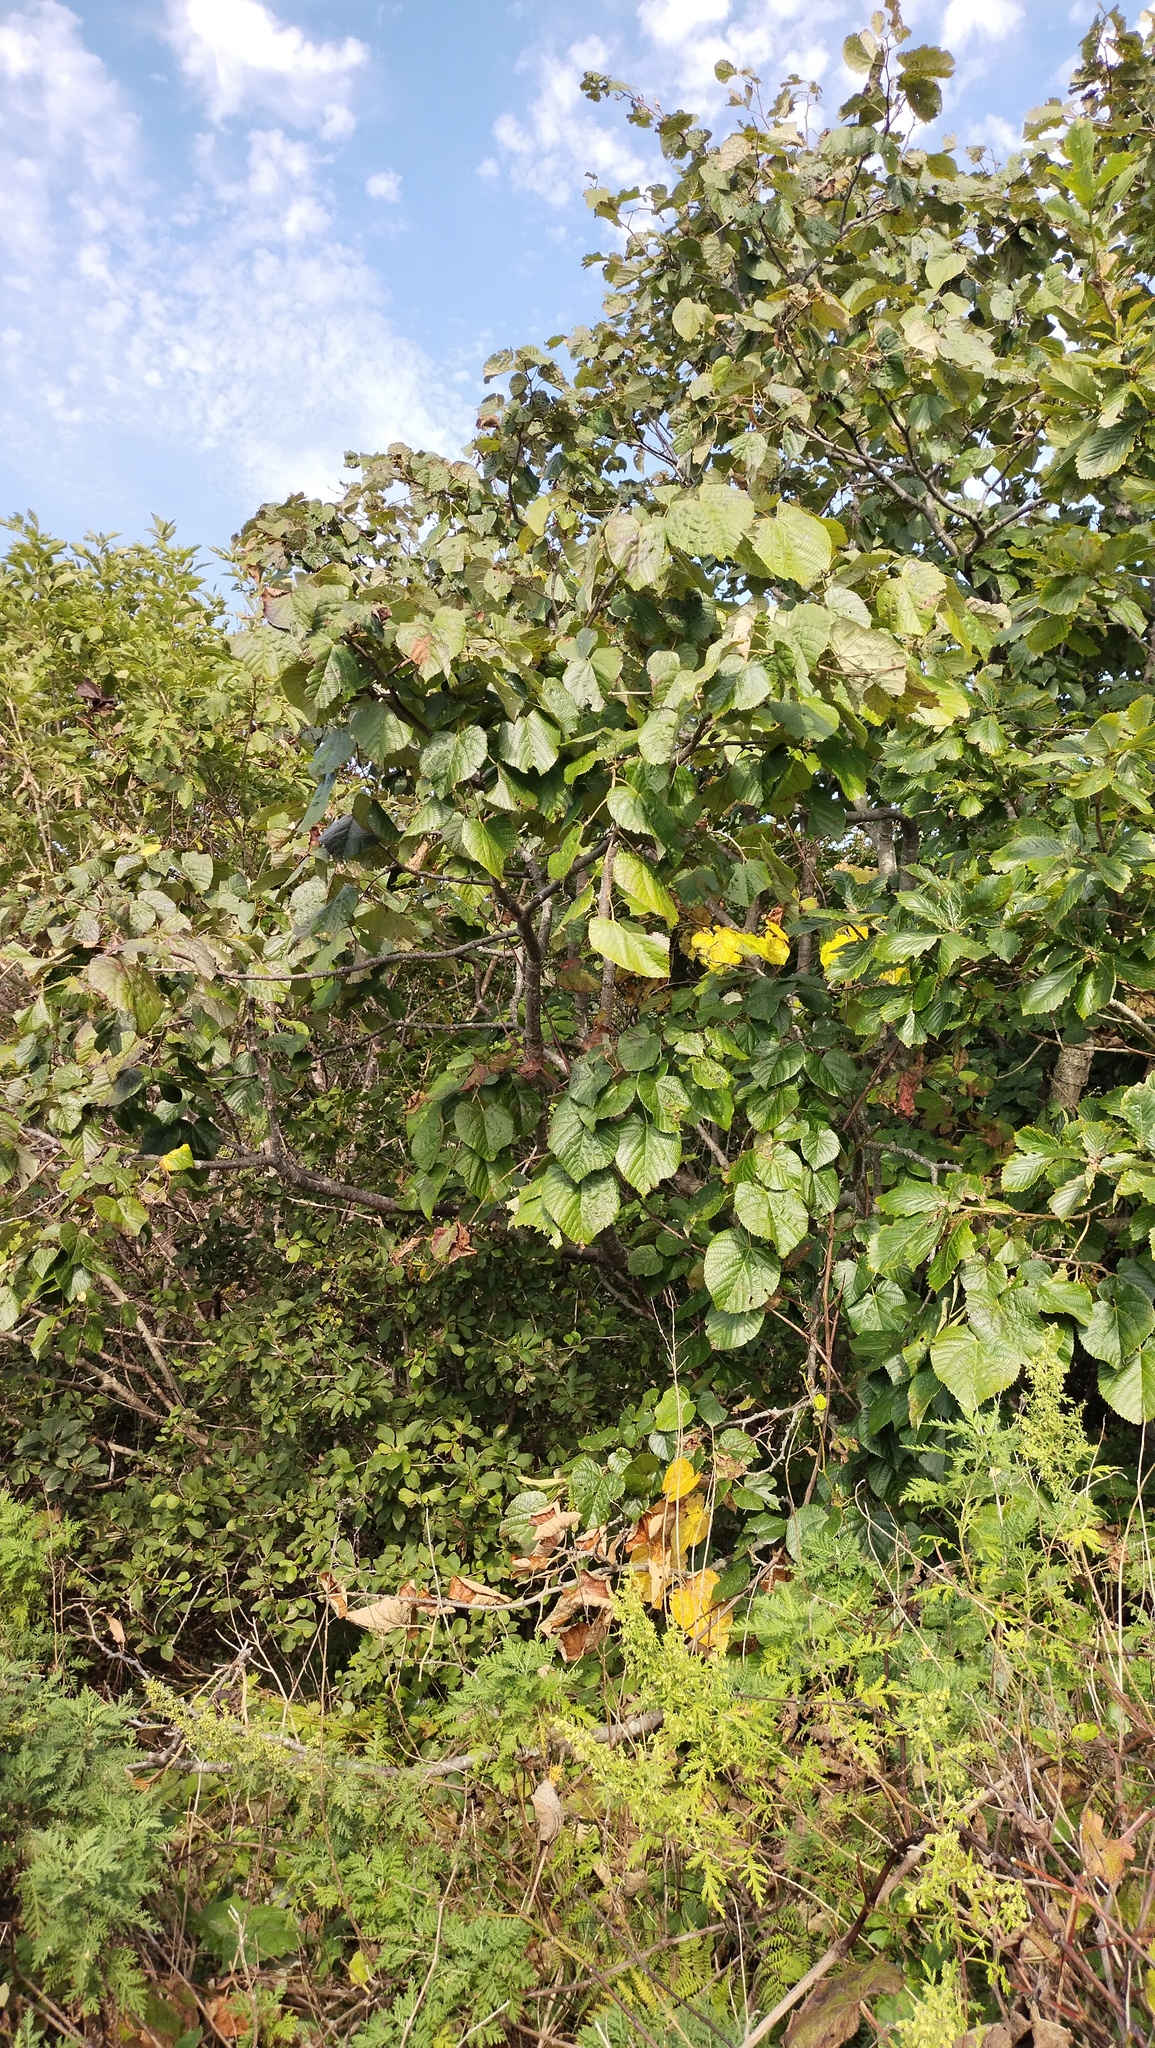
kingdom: Plantae
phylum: Tracheophyta
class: Magnoliopsida
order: Malvales
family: Malvaceae
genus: Tilia
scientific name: Tilia mandshurica
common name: Manchurian linden
